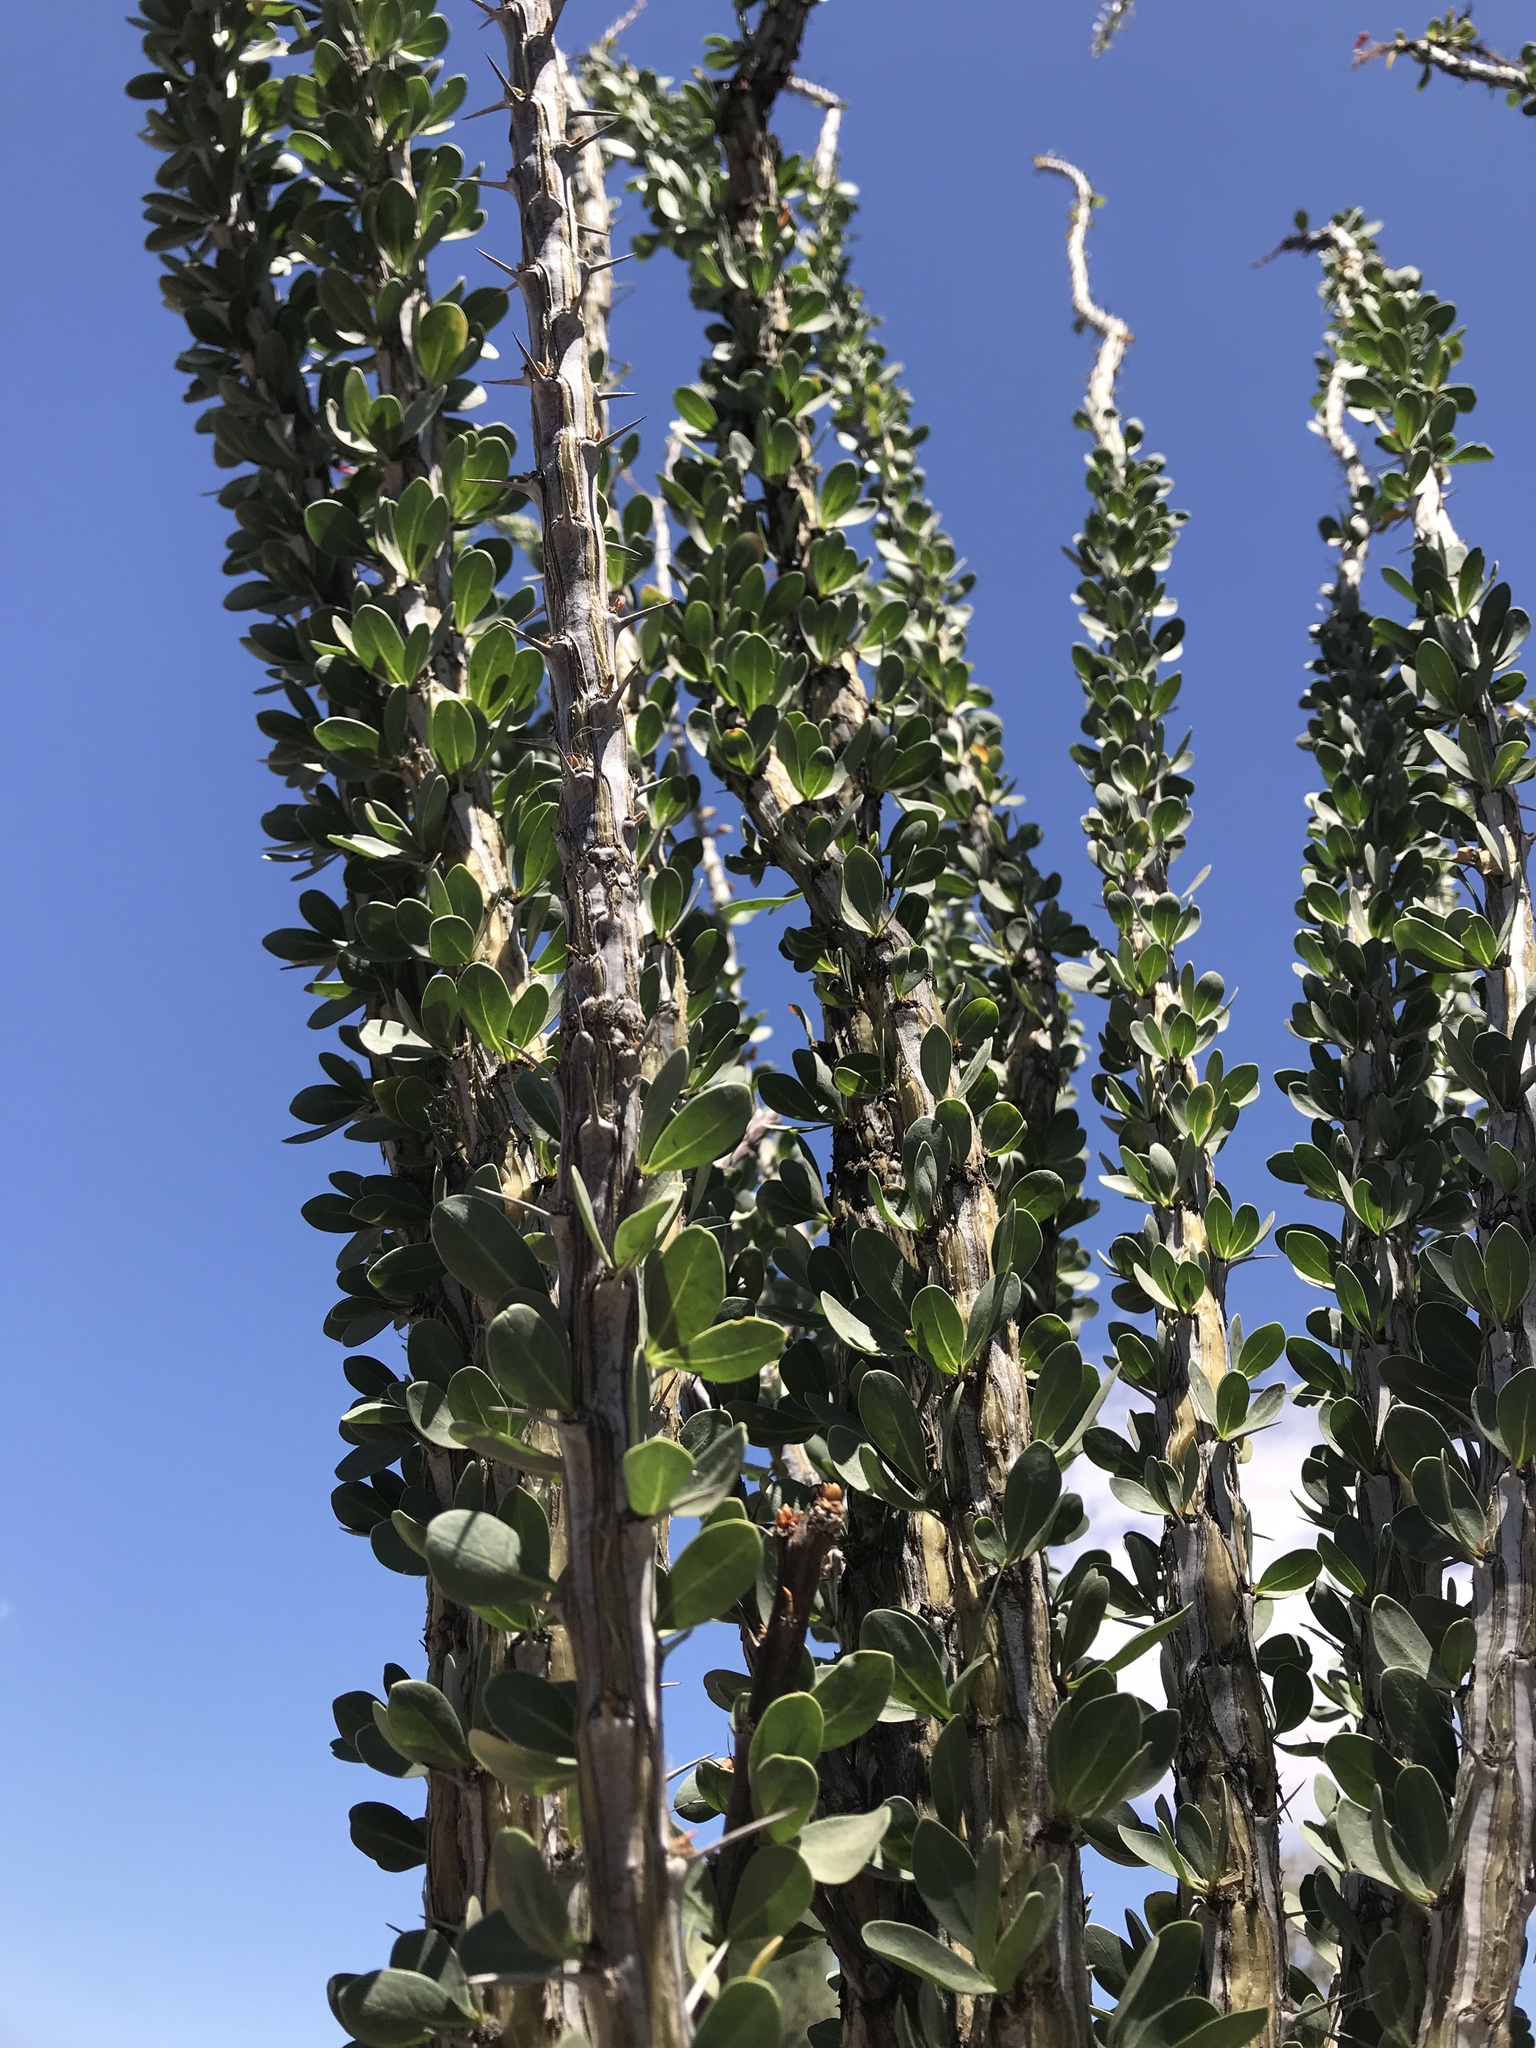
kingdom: Plantae
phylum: Tracheophyta
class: Magnoliopsida
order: Ericales
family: Fouquieriaceae
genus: Fouquieria
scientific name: Fouquieria splendens
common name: Vine-cactus
